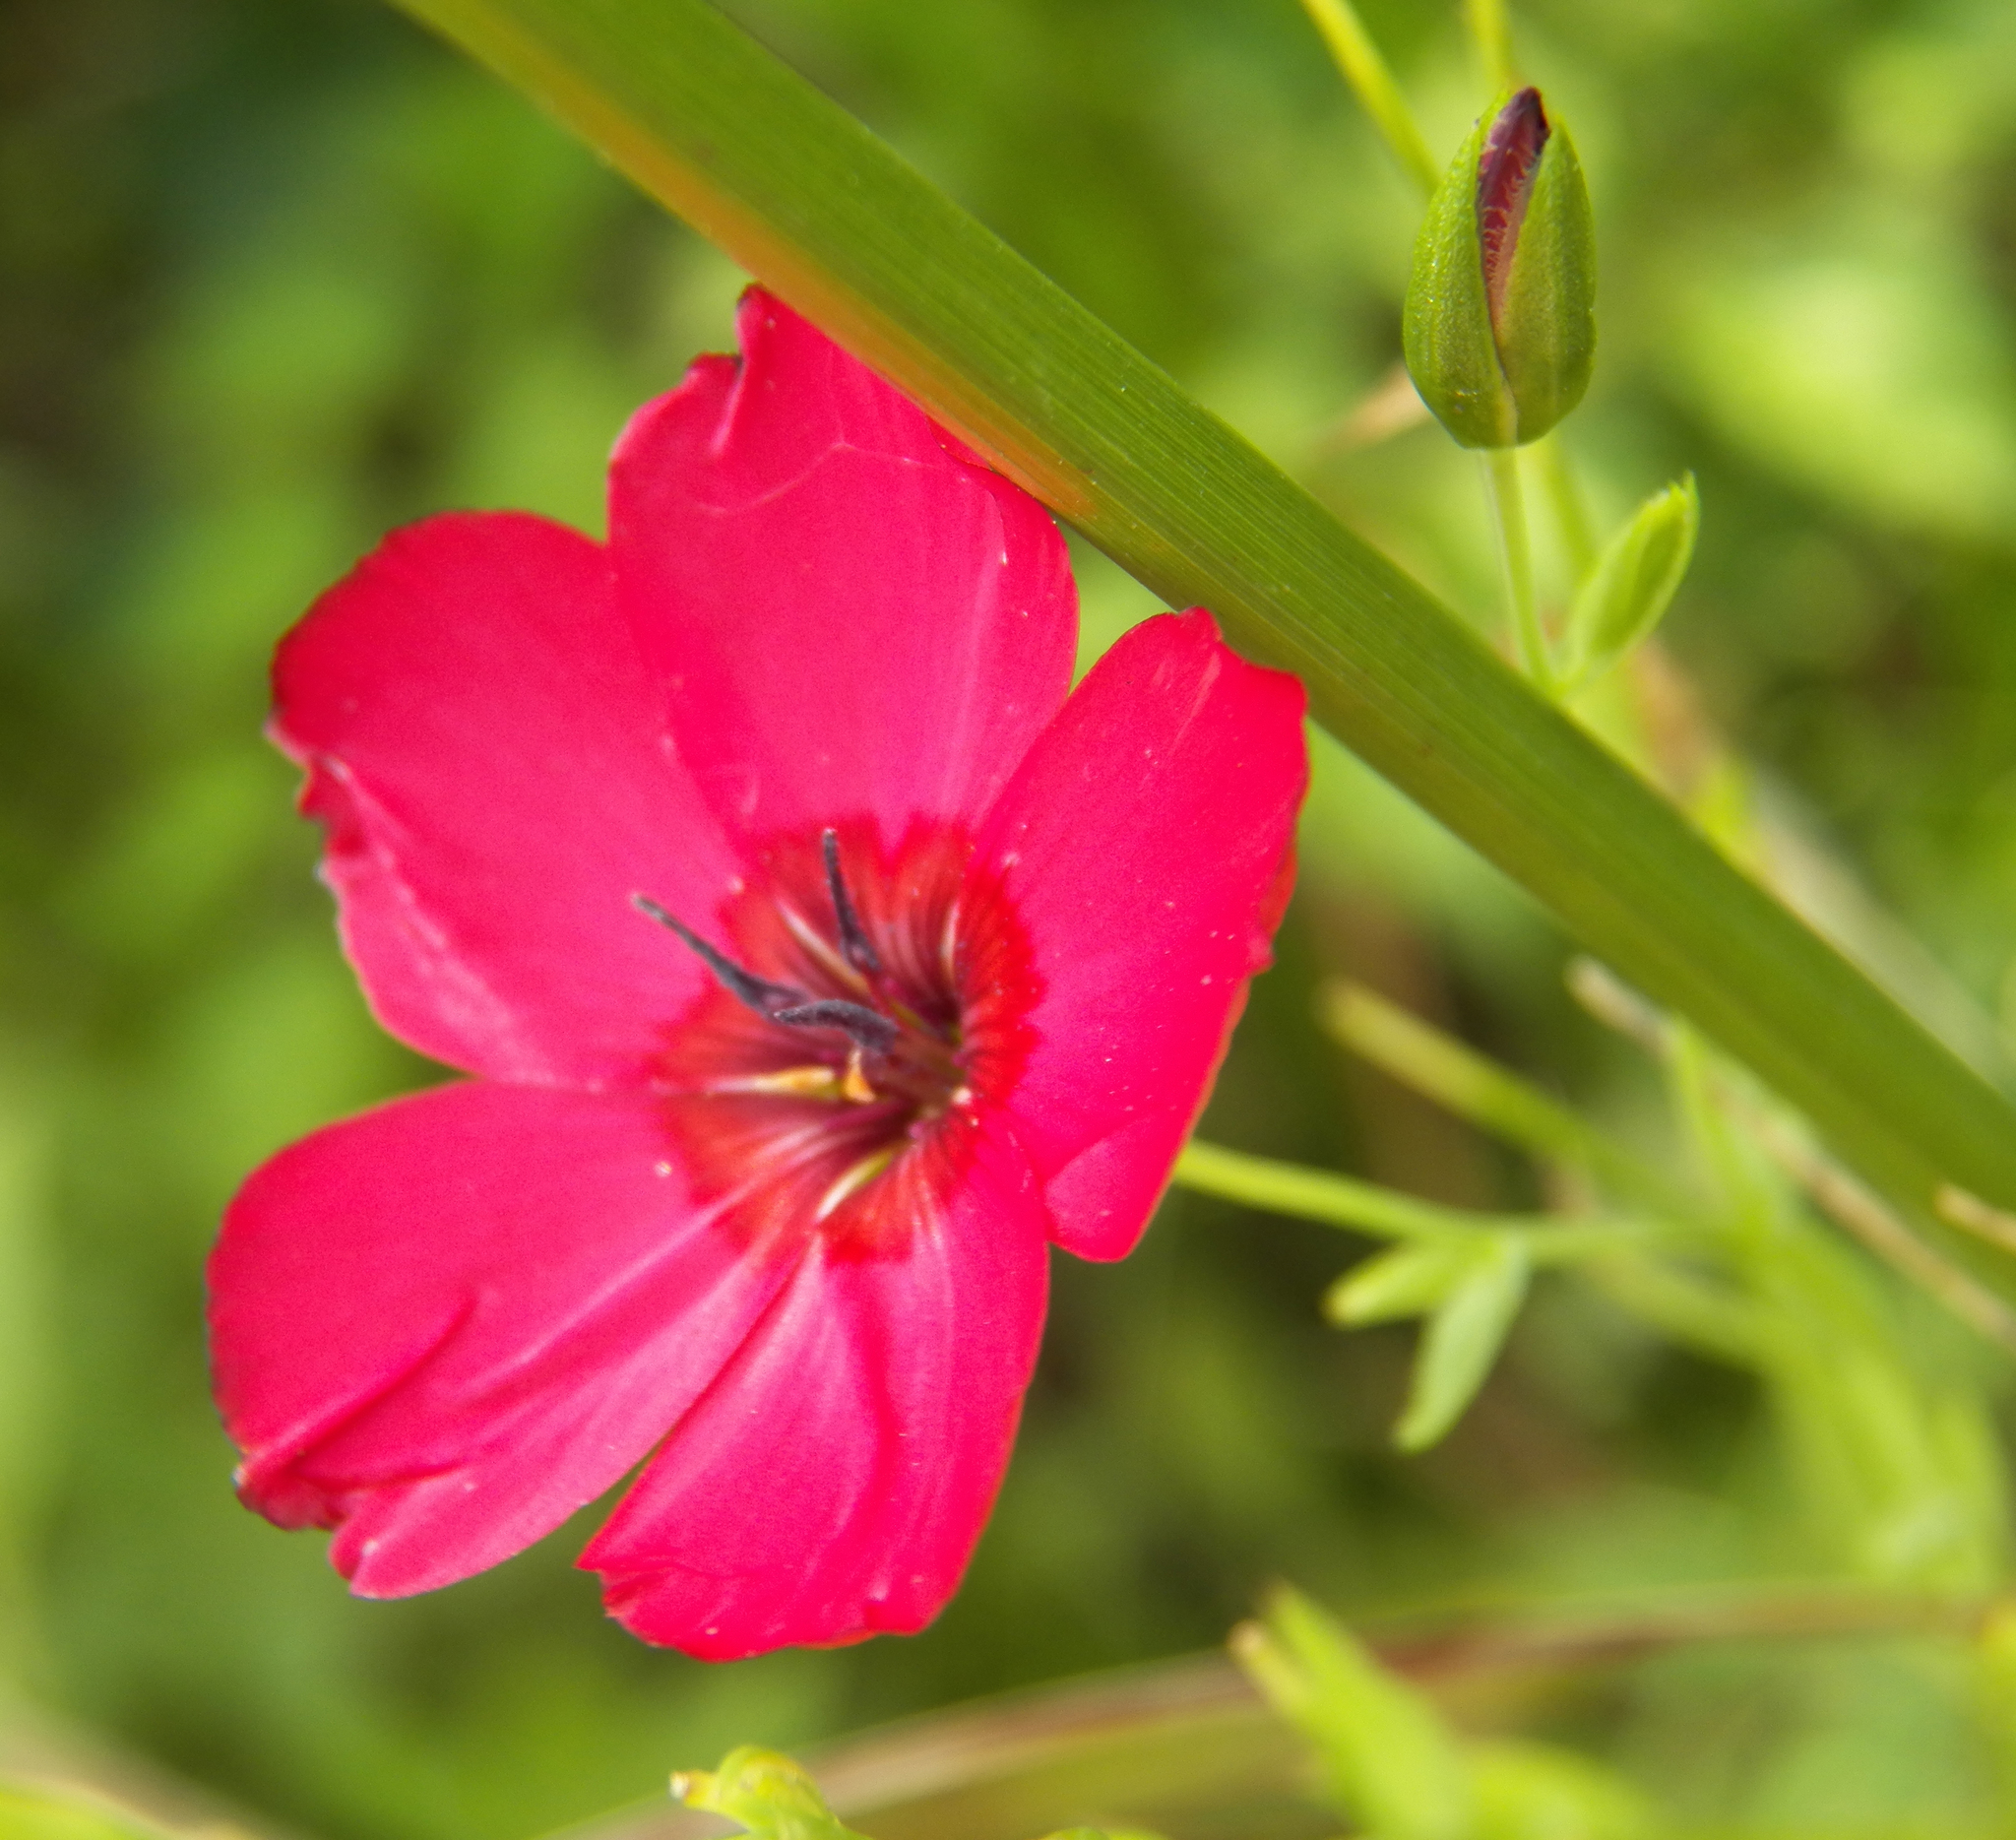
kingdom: Plantae
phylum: Tracheophyta
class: Magnoliopsida
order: Malpighiales
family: Linaceae
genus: Linum
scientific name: Linum grandiflorum
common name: Crimson flax
